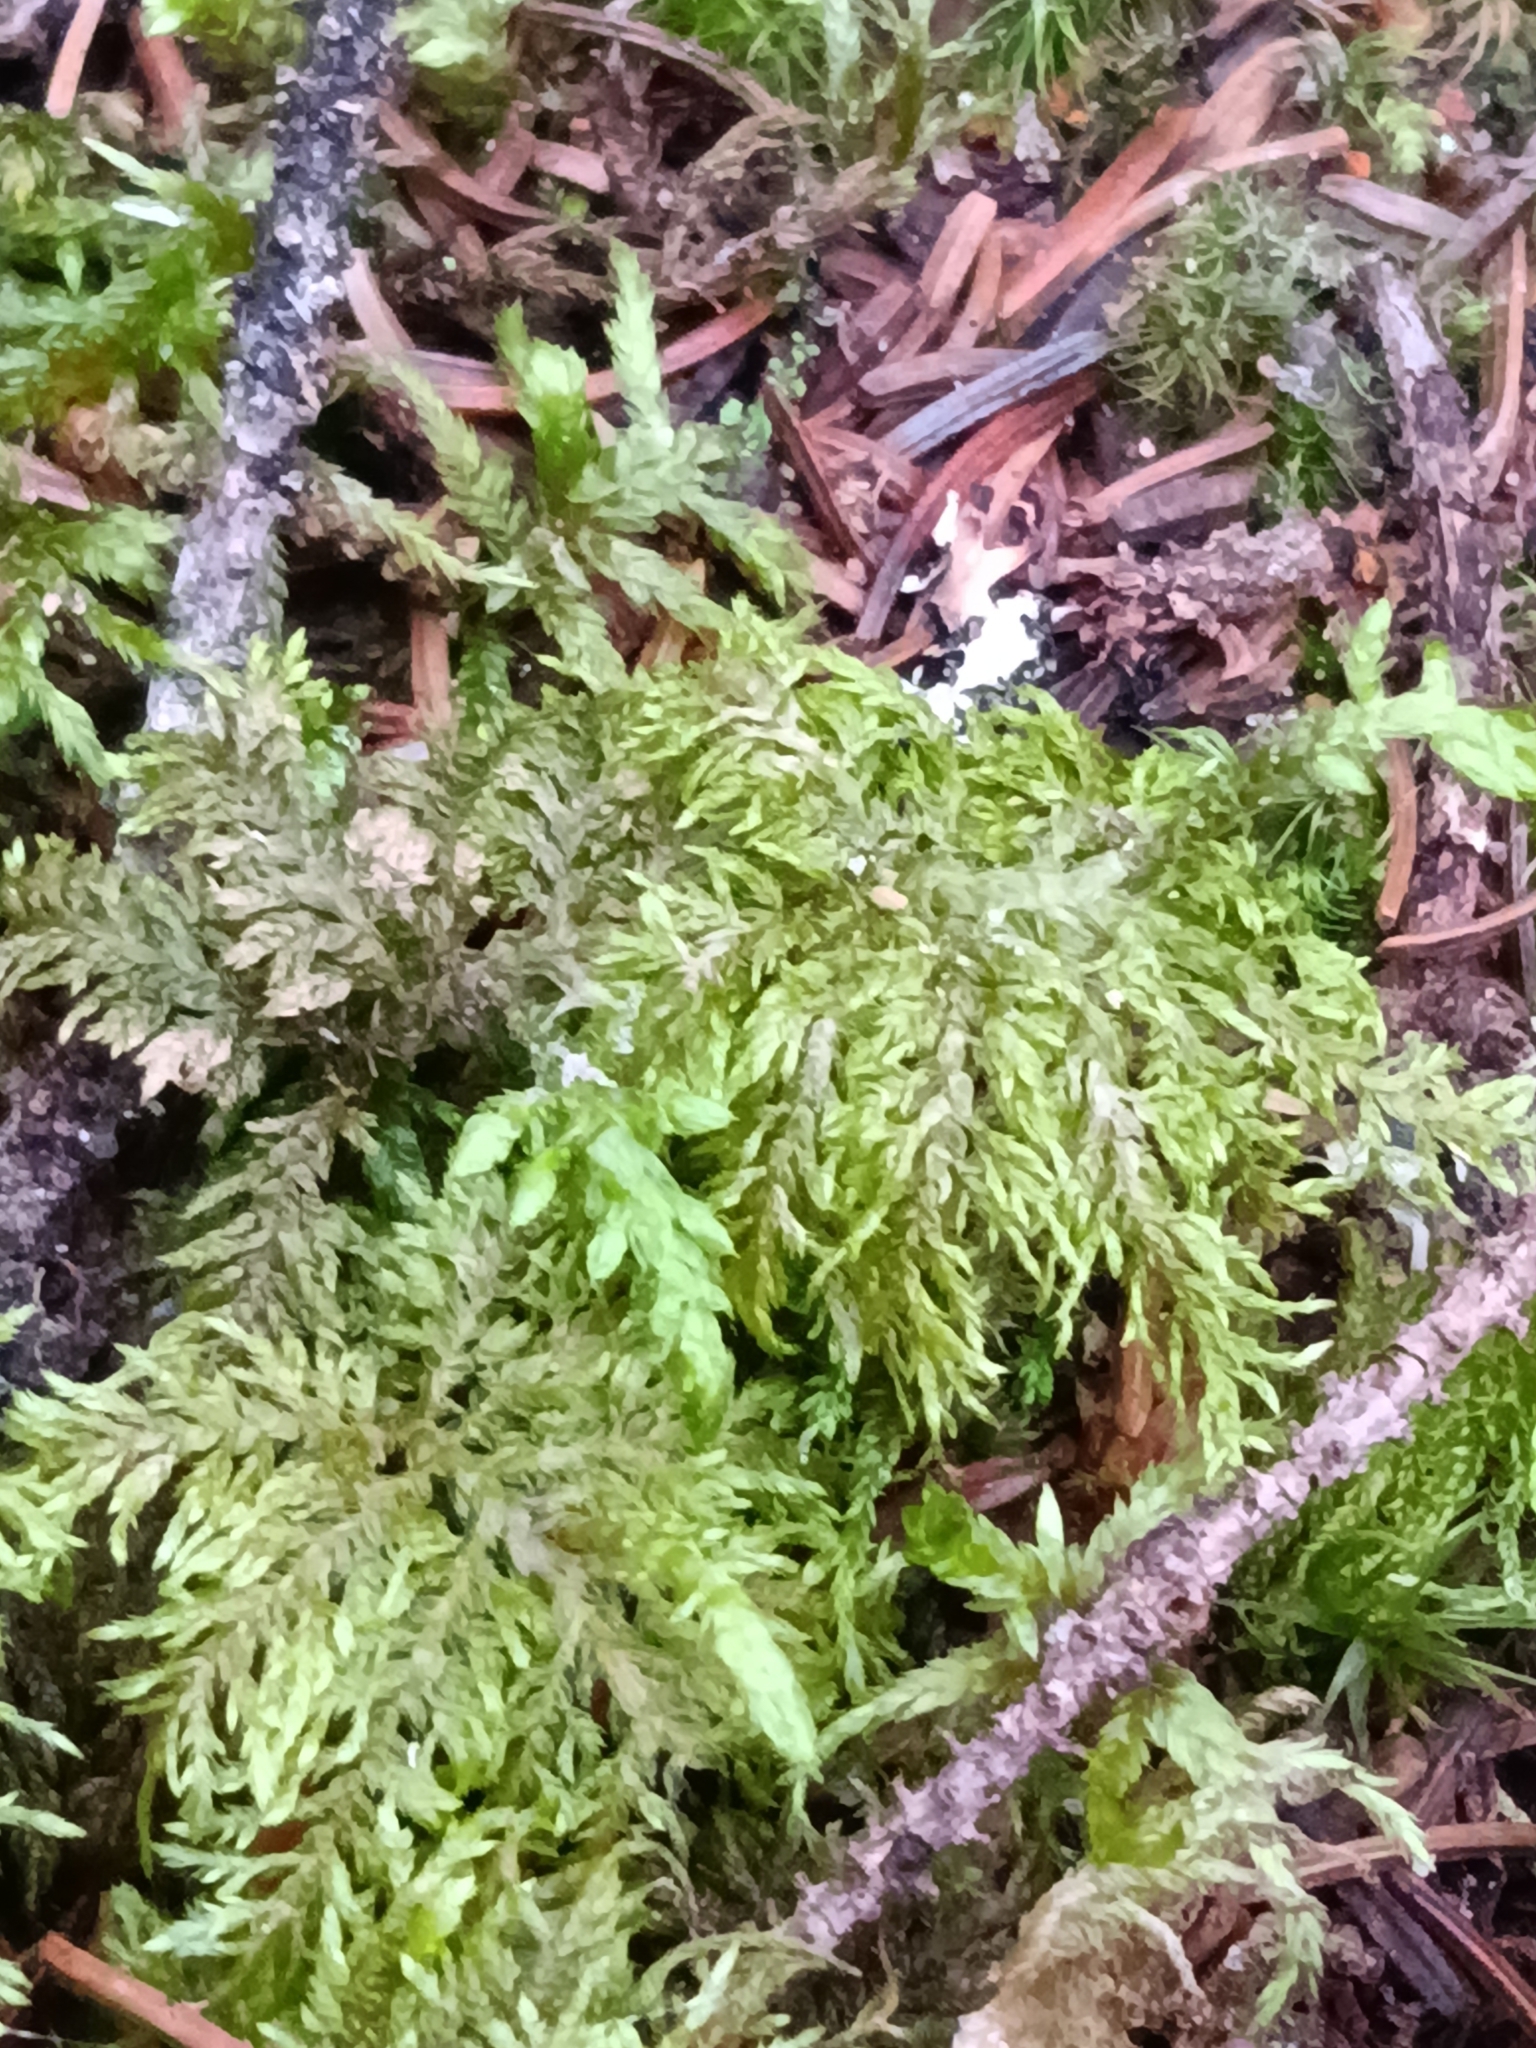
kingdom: Plantae
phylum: Bryophyta
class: Bryopsida
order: Hypnales
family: Hylocomiaceae
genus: Hylocomium
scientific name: Hylocomium splendens
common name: Stairstep moss
